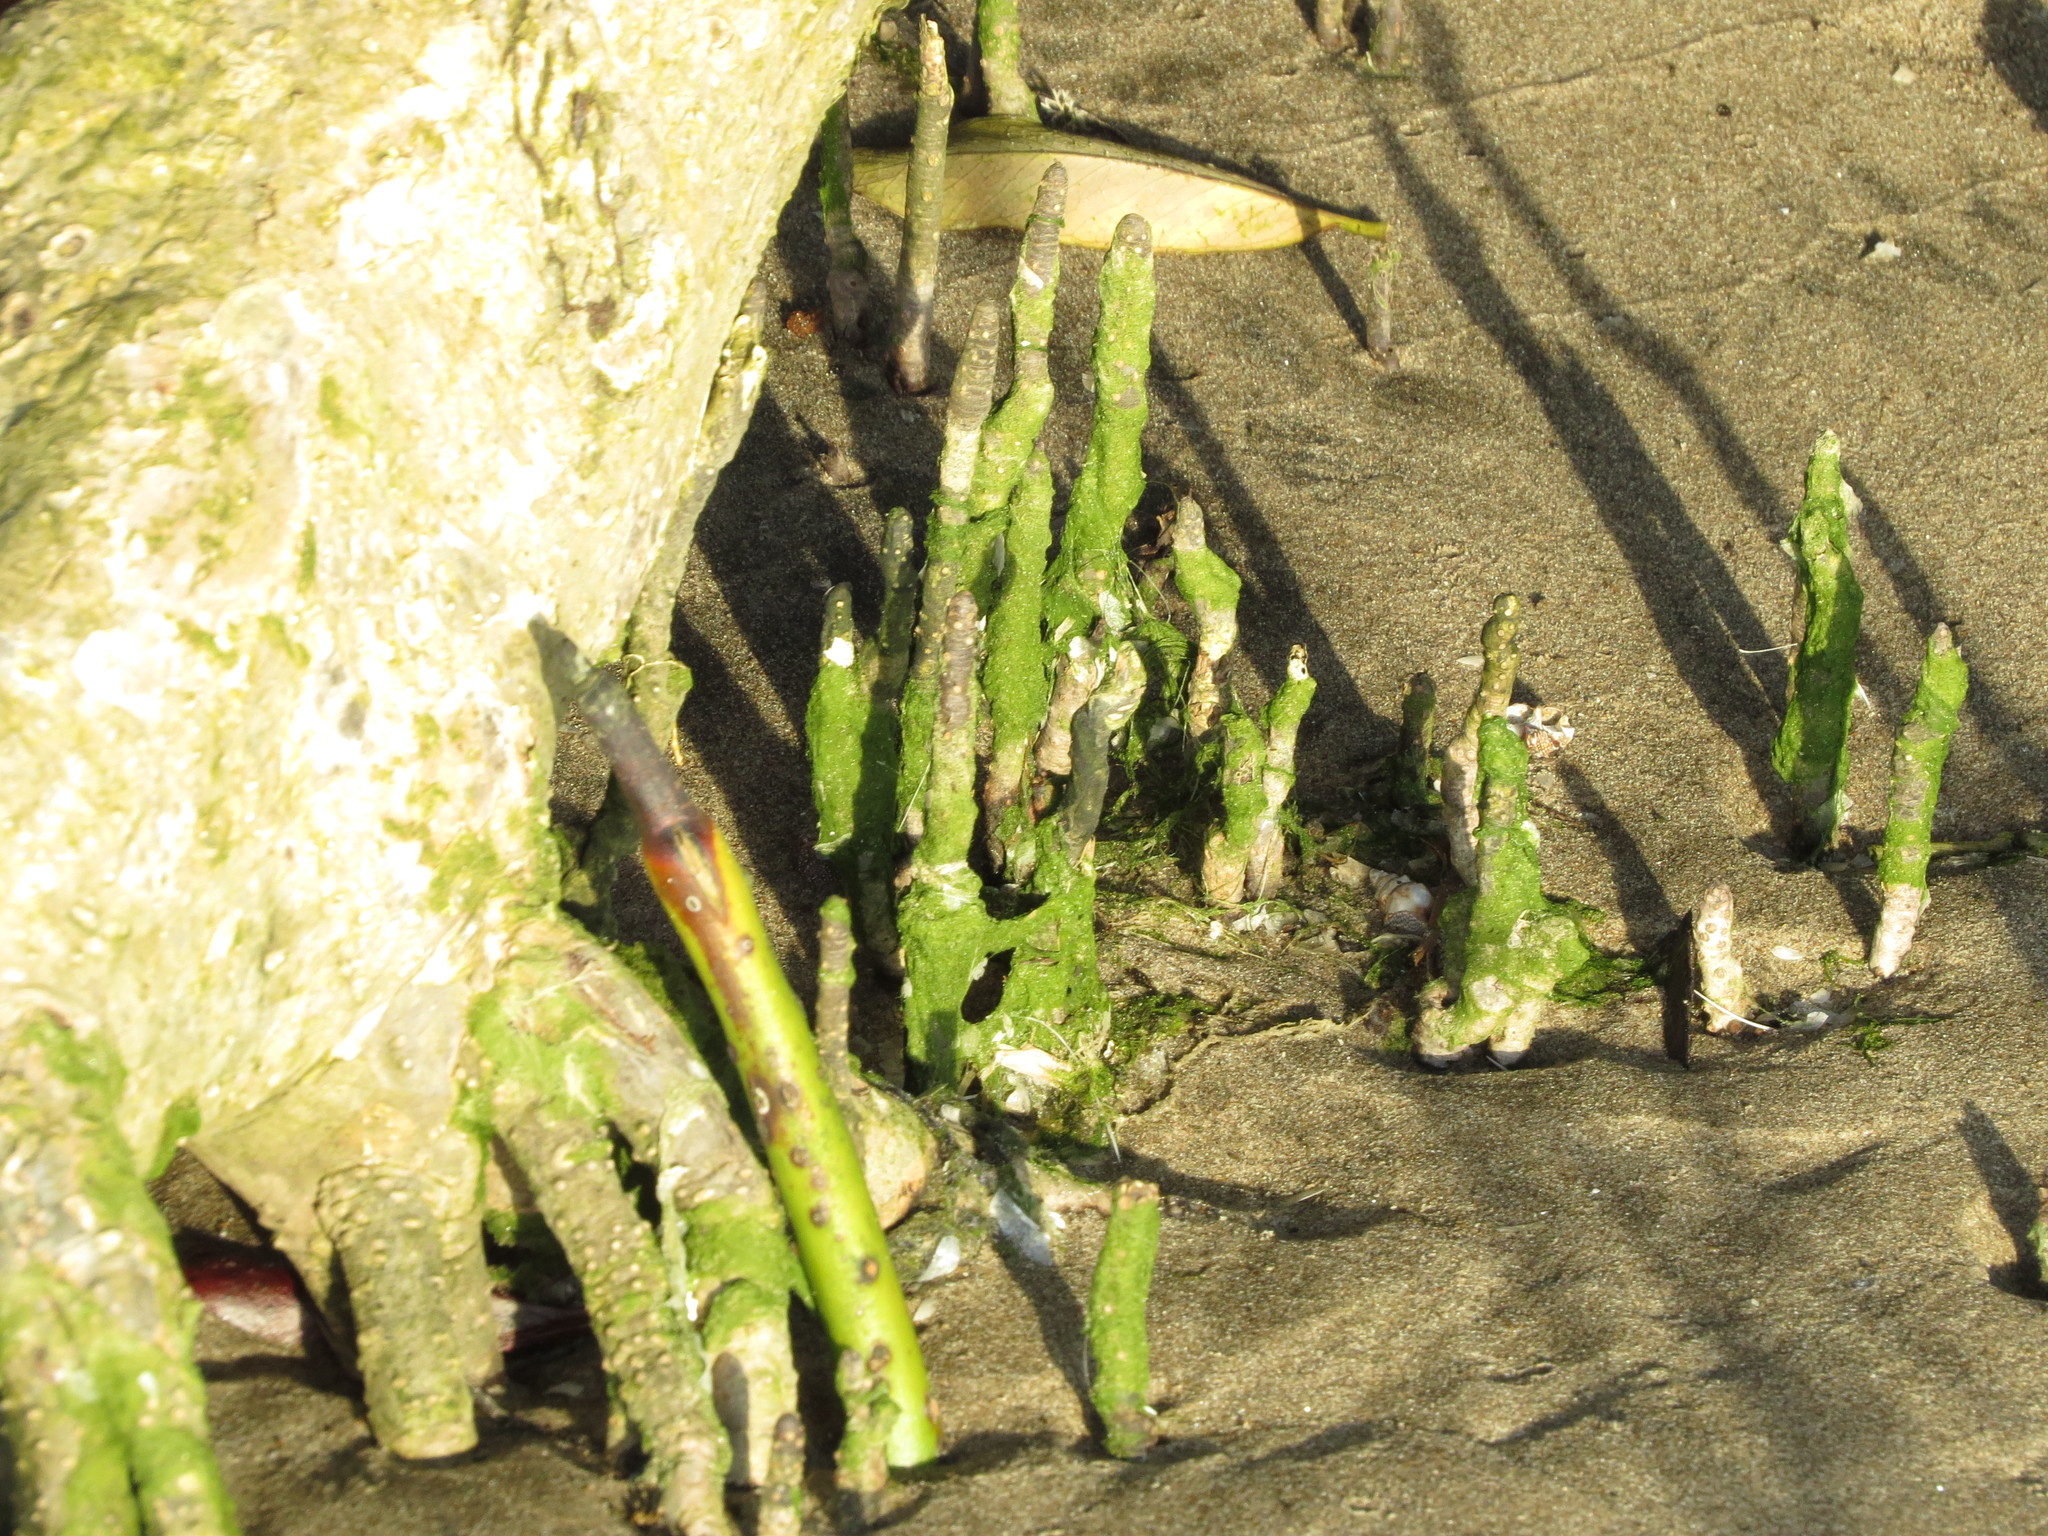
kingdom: Plantae
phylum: Tracheophyta
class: Magnoliopsida
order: Malpighiales
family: Rhizophoraceae
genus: Rhizophora
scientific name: Rhizophora mangle
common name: Red mangrove
